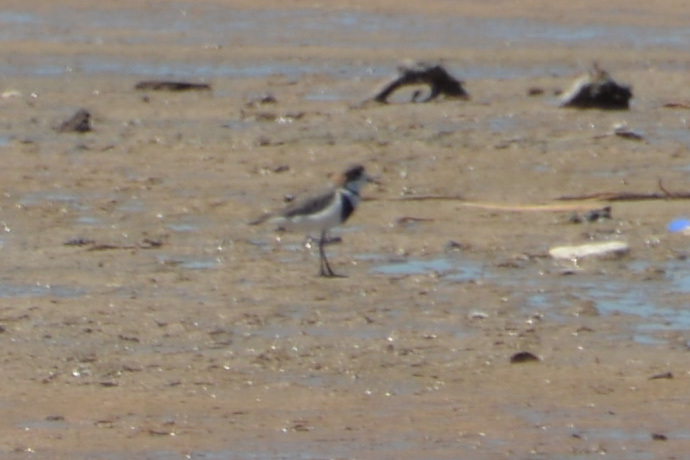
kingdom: Animalia
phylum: Chordata
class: Aves
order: Charadriiformes
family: Charadriidae
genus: Anarhynchus
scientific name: Anarhynchus
